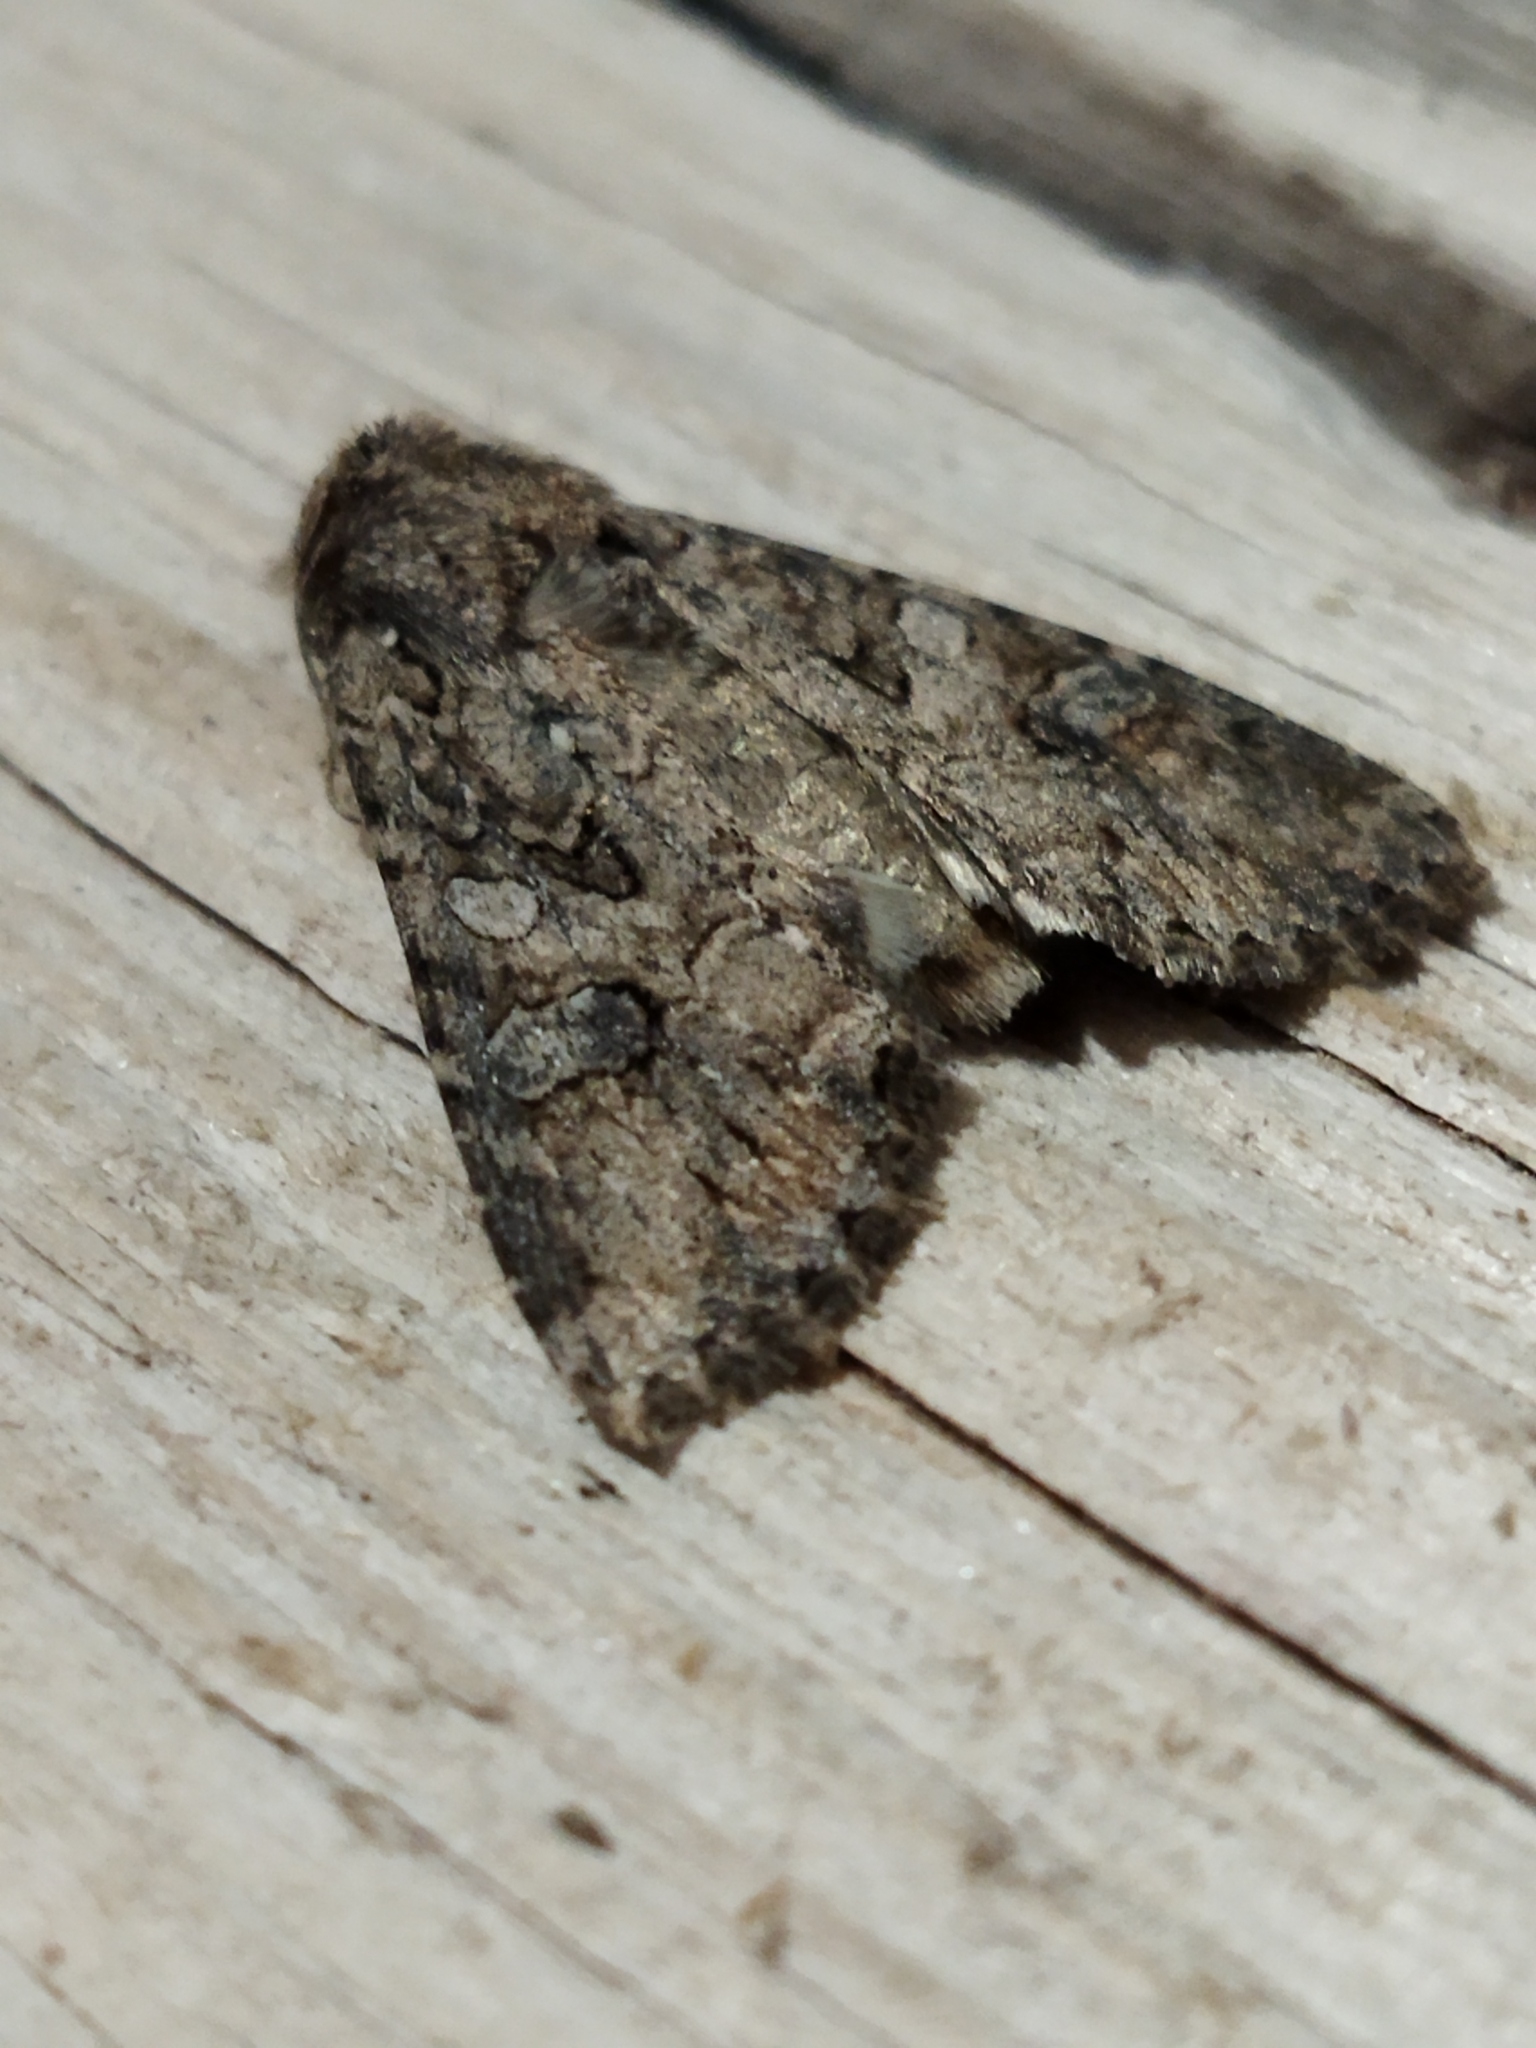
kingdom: Animalia
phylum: Arthropoda
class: Insecta
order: Lepidoptera
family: Noctuidae
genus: Anarta
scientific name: Anarta trifolii
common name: Clover cutworm moth
